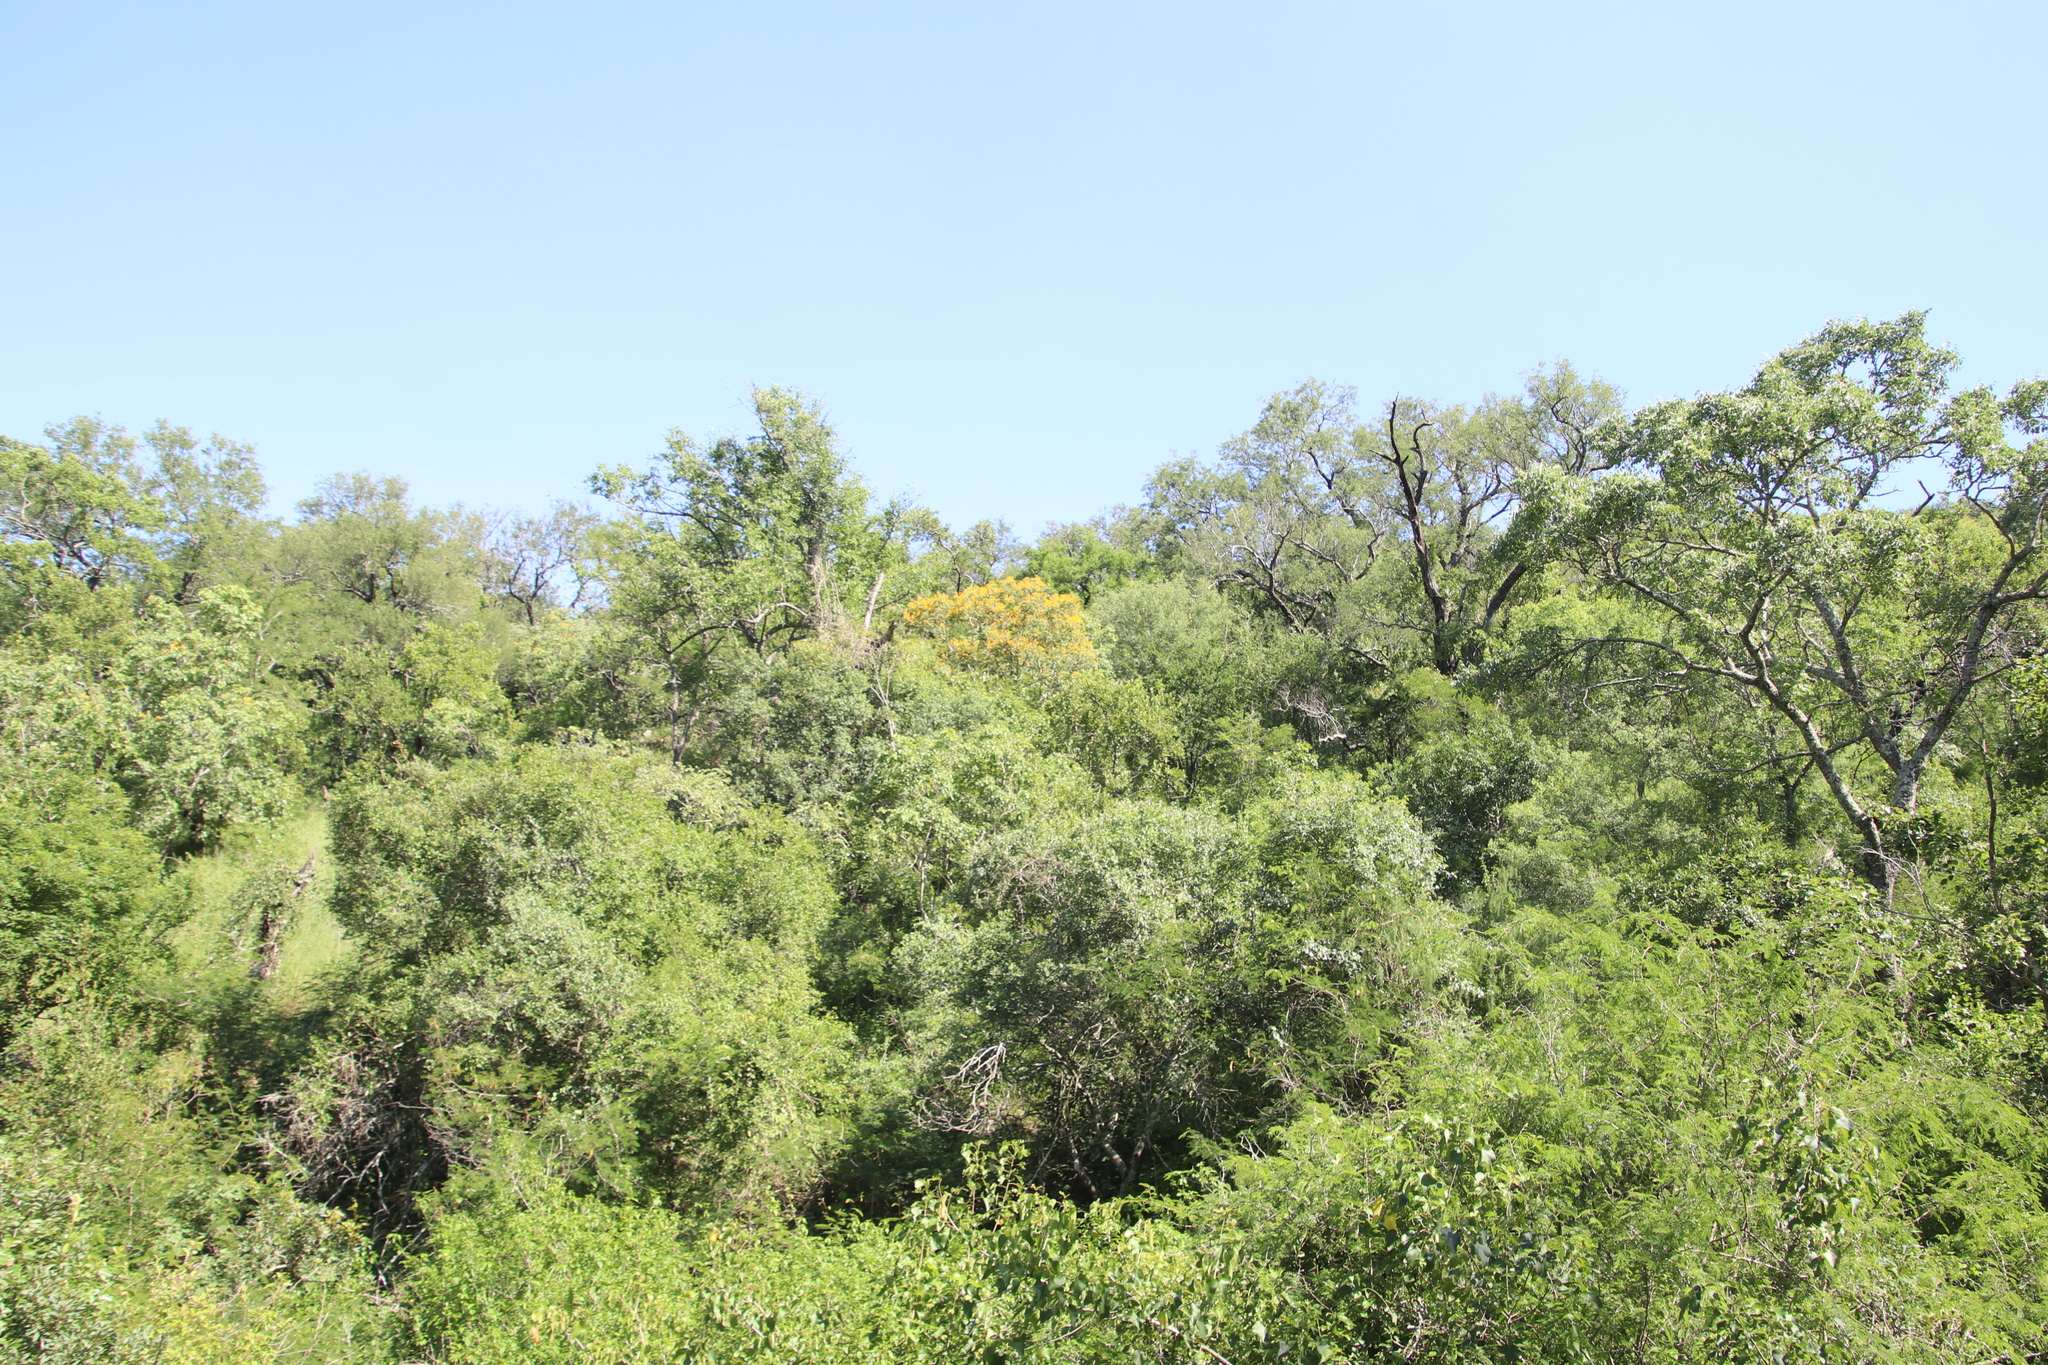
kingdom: Plantae
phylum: Tracheophyta
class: Magnoliopsida
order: Fabales
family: Fabaceae
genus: Pterocarpus
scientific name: Pterocarpus rotundifolius
